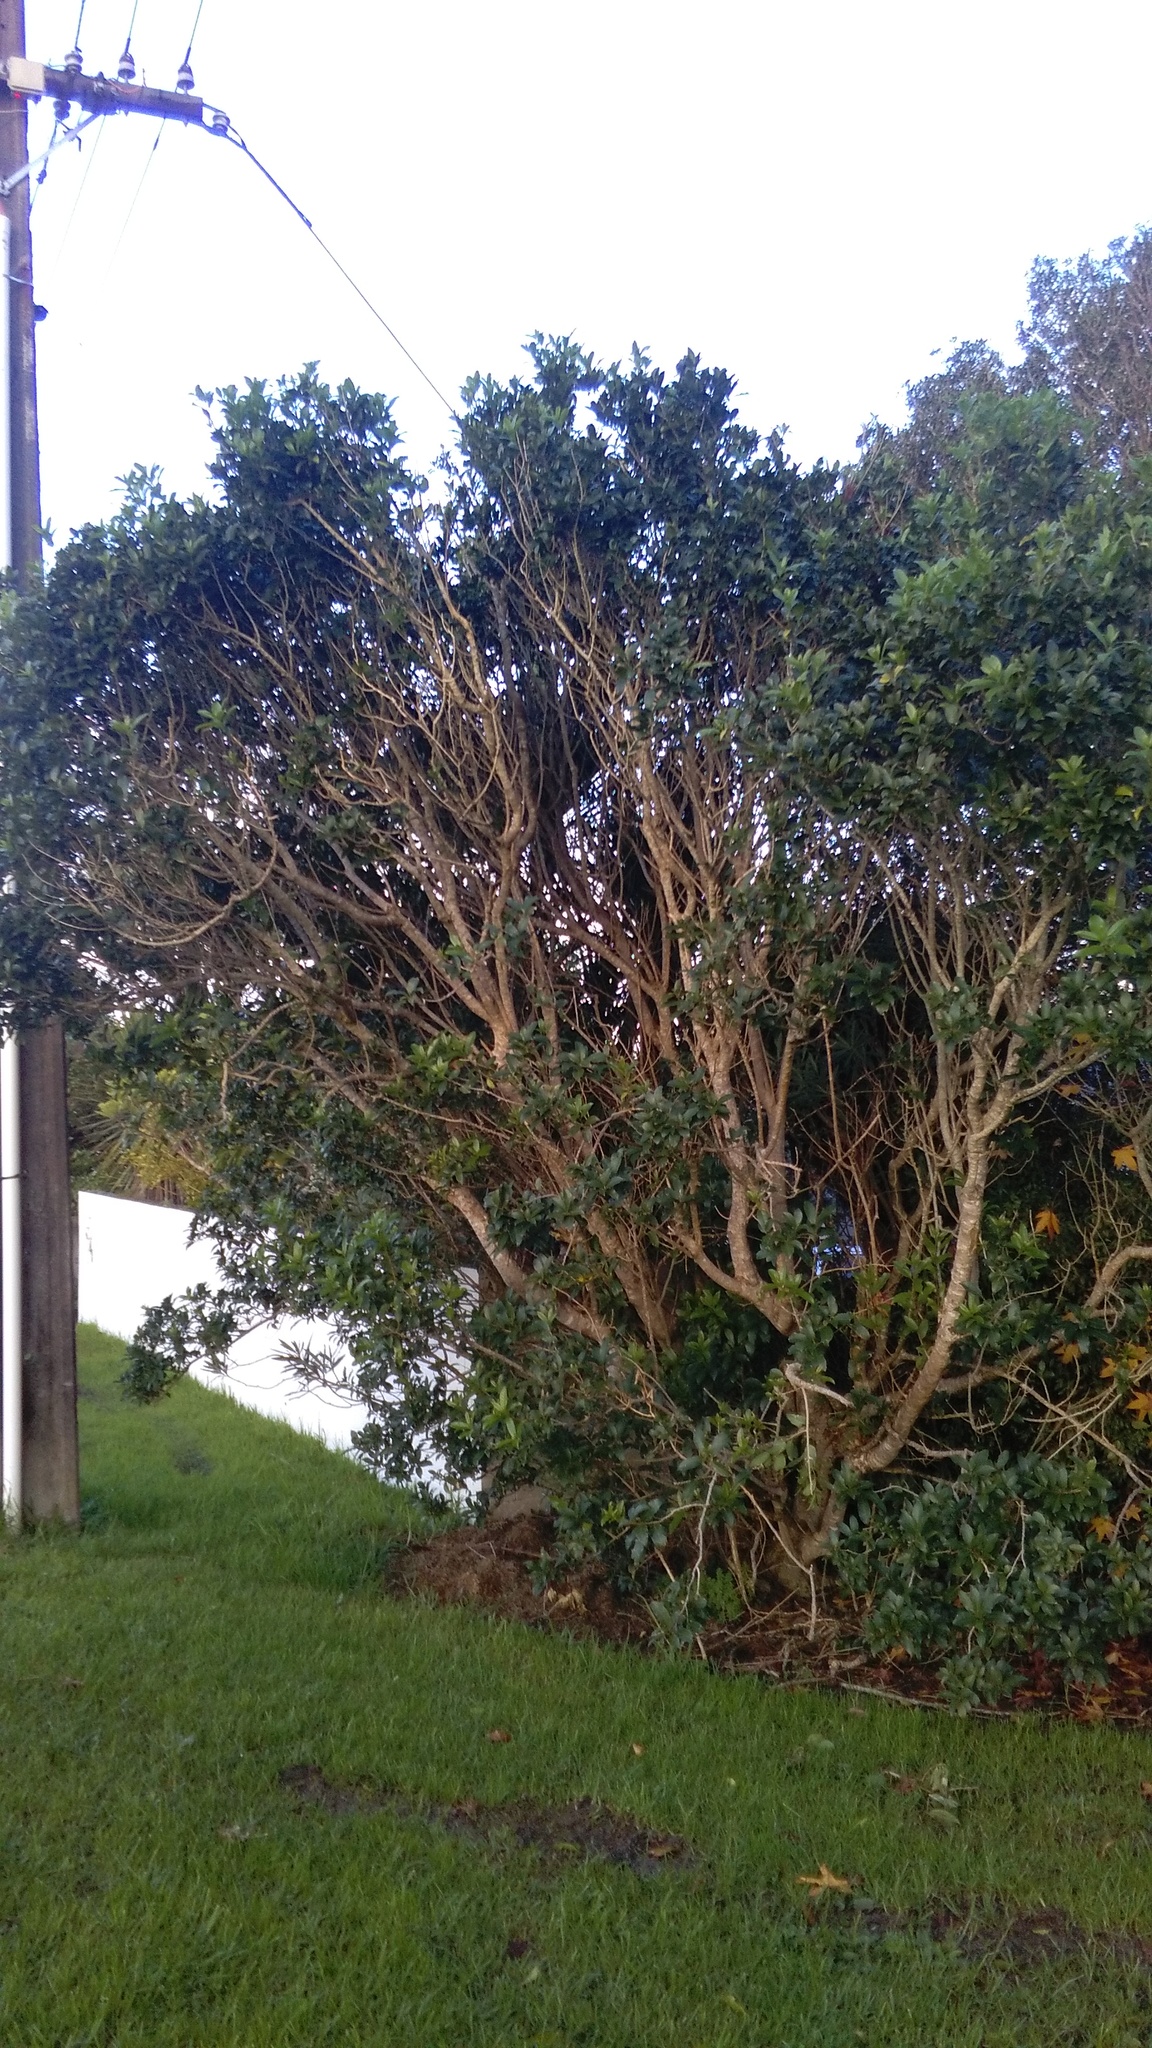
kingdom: Plantae
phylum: Tracheophyta
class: Magnoliopsida
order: Malpighiales
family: Violaceae
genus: Melicytus
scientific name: Melicytus ramiflorus
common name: Mahoe
